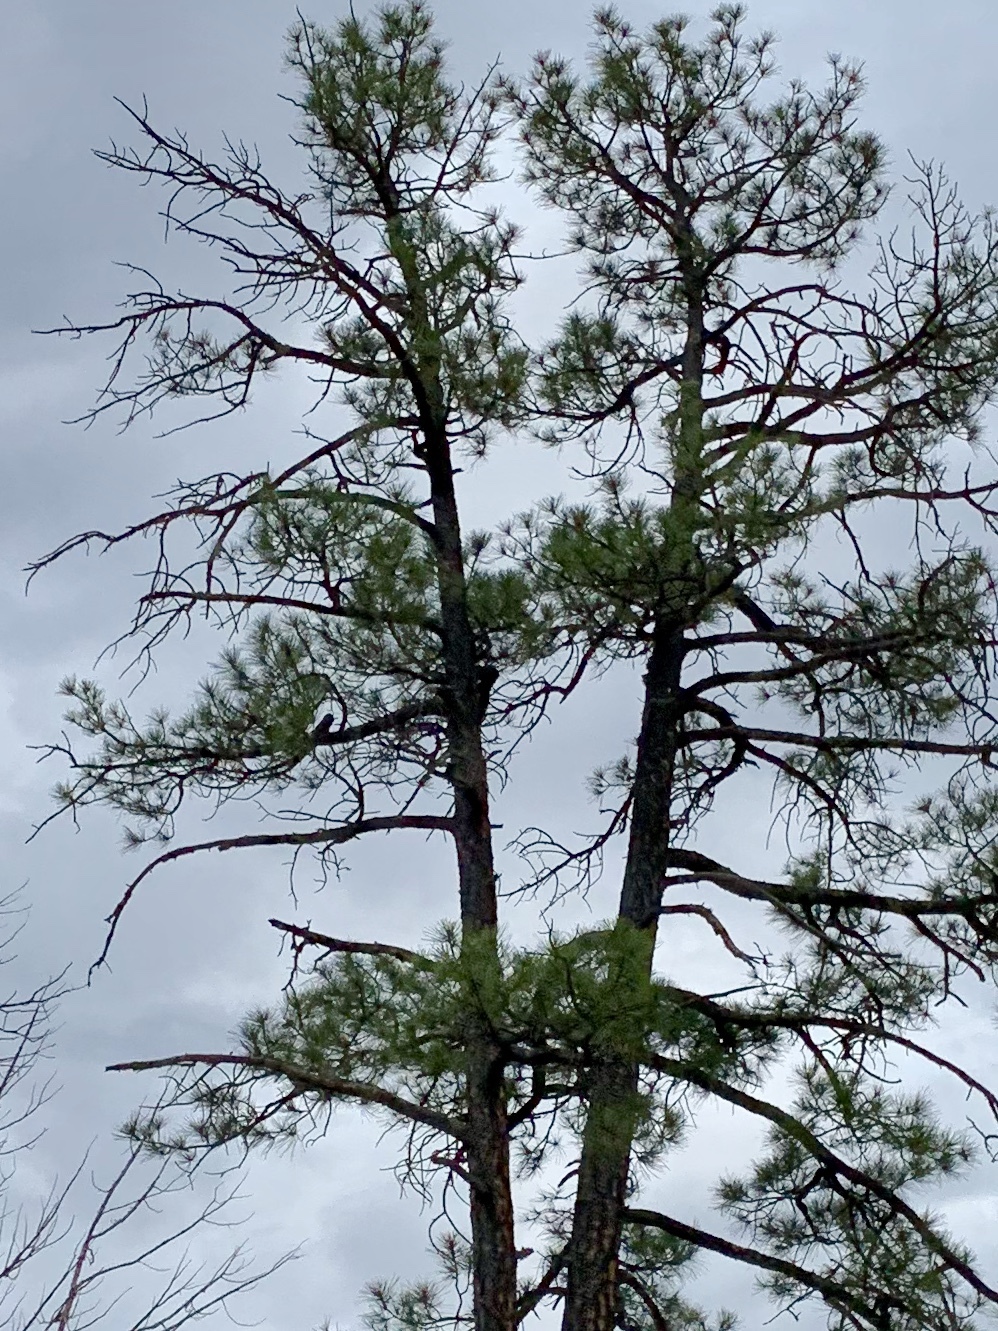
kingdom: Plantae
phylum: Tracheophyta
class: Pinopsida
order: Pinales
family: Pinaceae
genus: Pinus
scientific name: Pinus ponderosa
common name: Western yellow-pine
